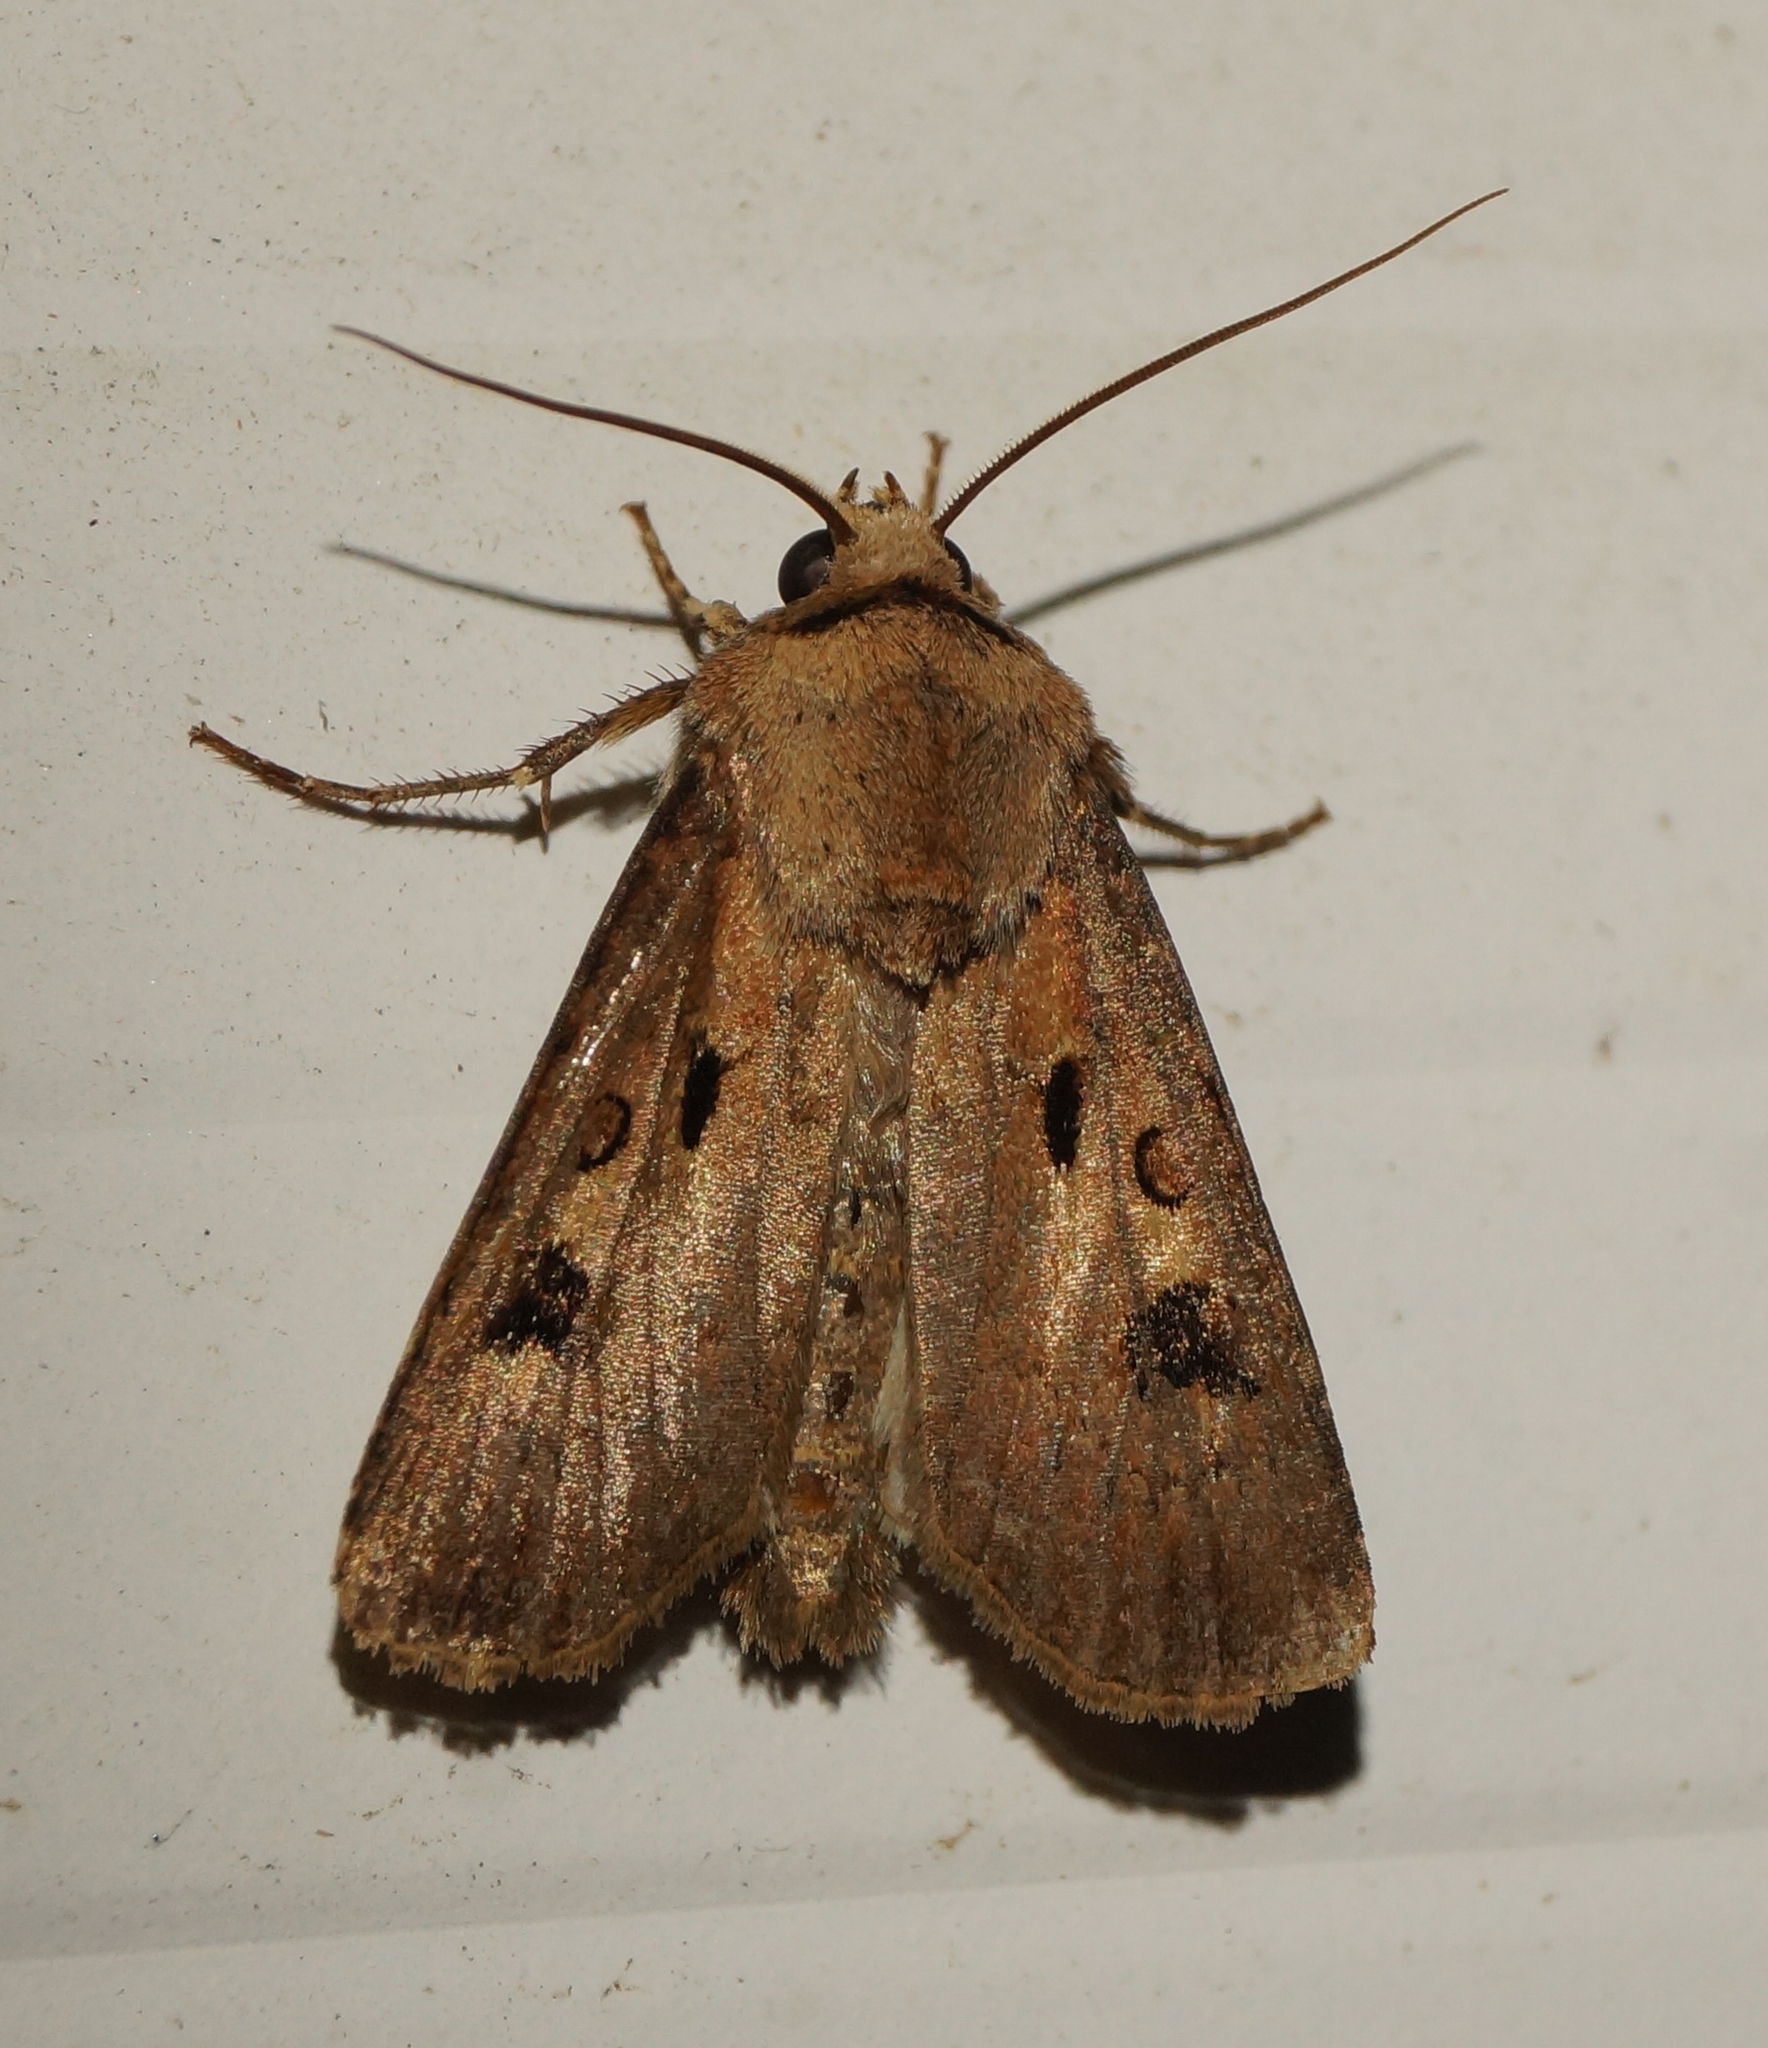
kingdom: Animalia
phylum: Arthropoda
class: Insecta
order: Lepidoptera
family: Noctuidae
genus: Agrotis
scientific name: Agrotis exclamationis
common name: Heart and dart
